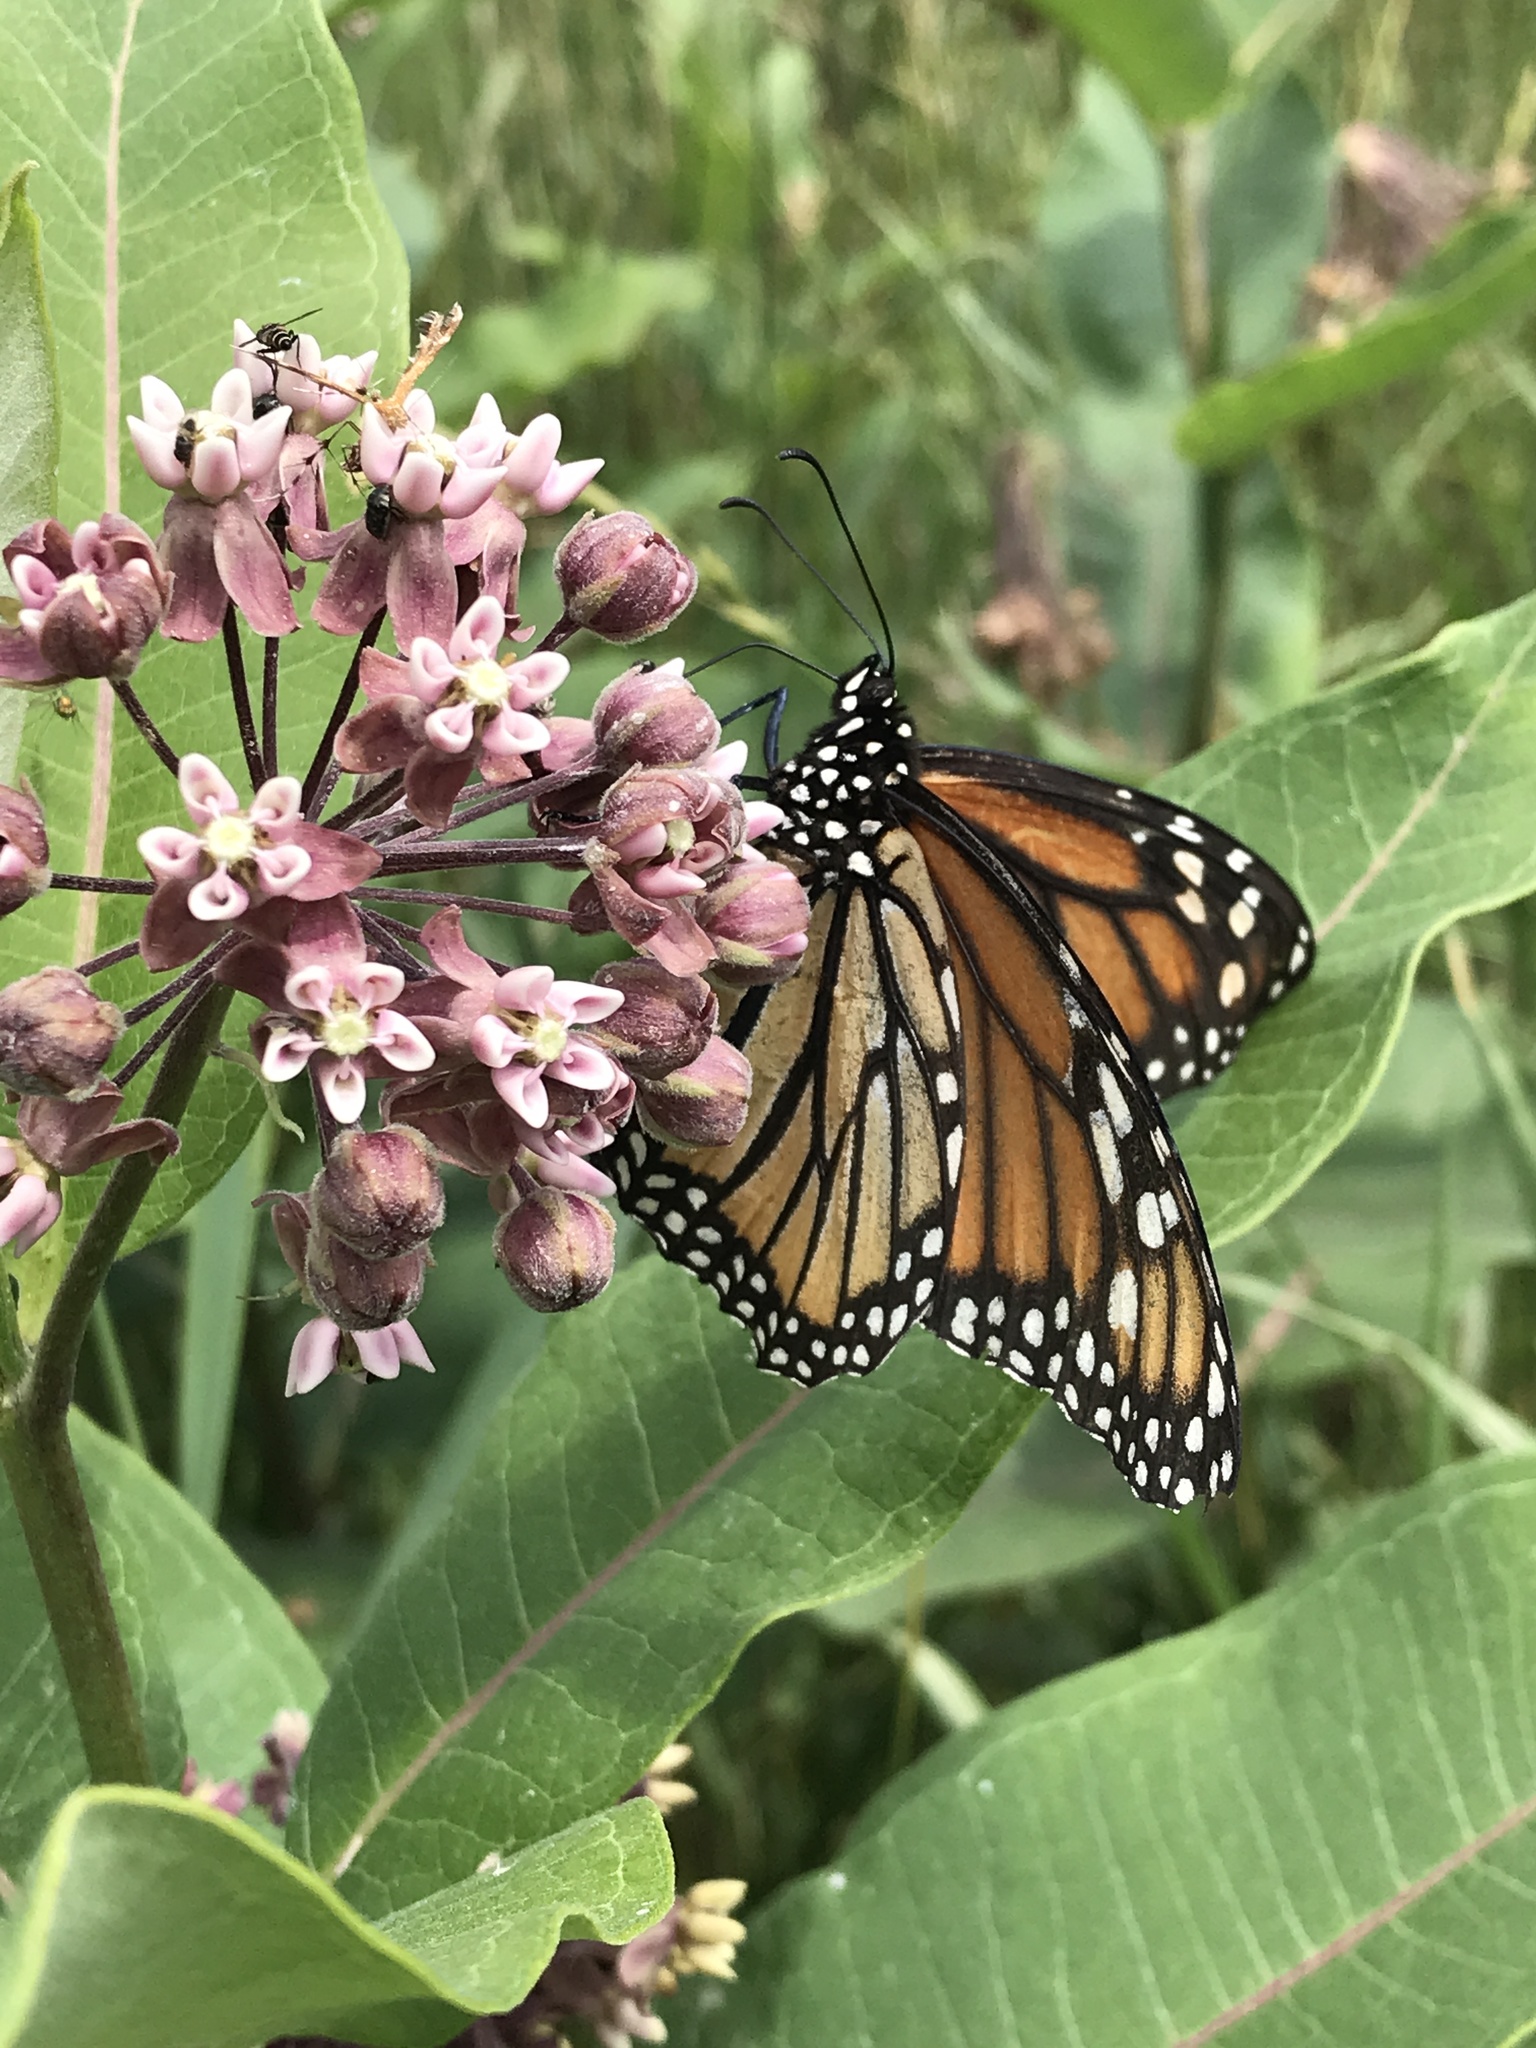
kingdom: Animalia
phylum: Arthropoda
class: Insecta
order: Lepidoptera
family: Nymphalidae
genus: Danaus
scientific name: Danaus plexippus
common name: Monarch
